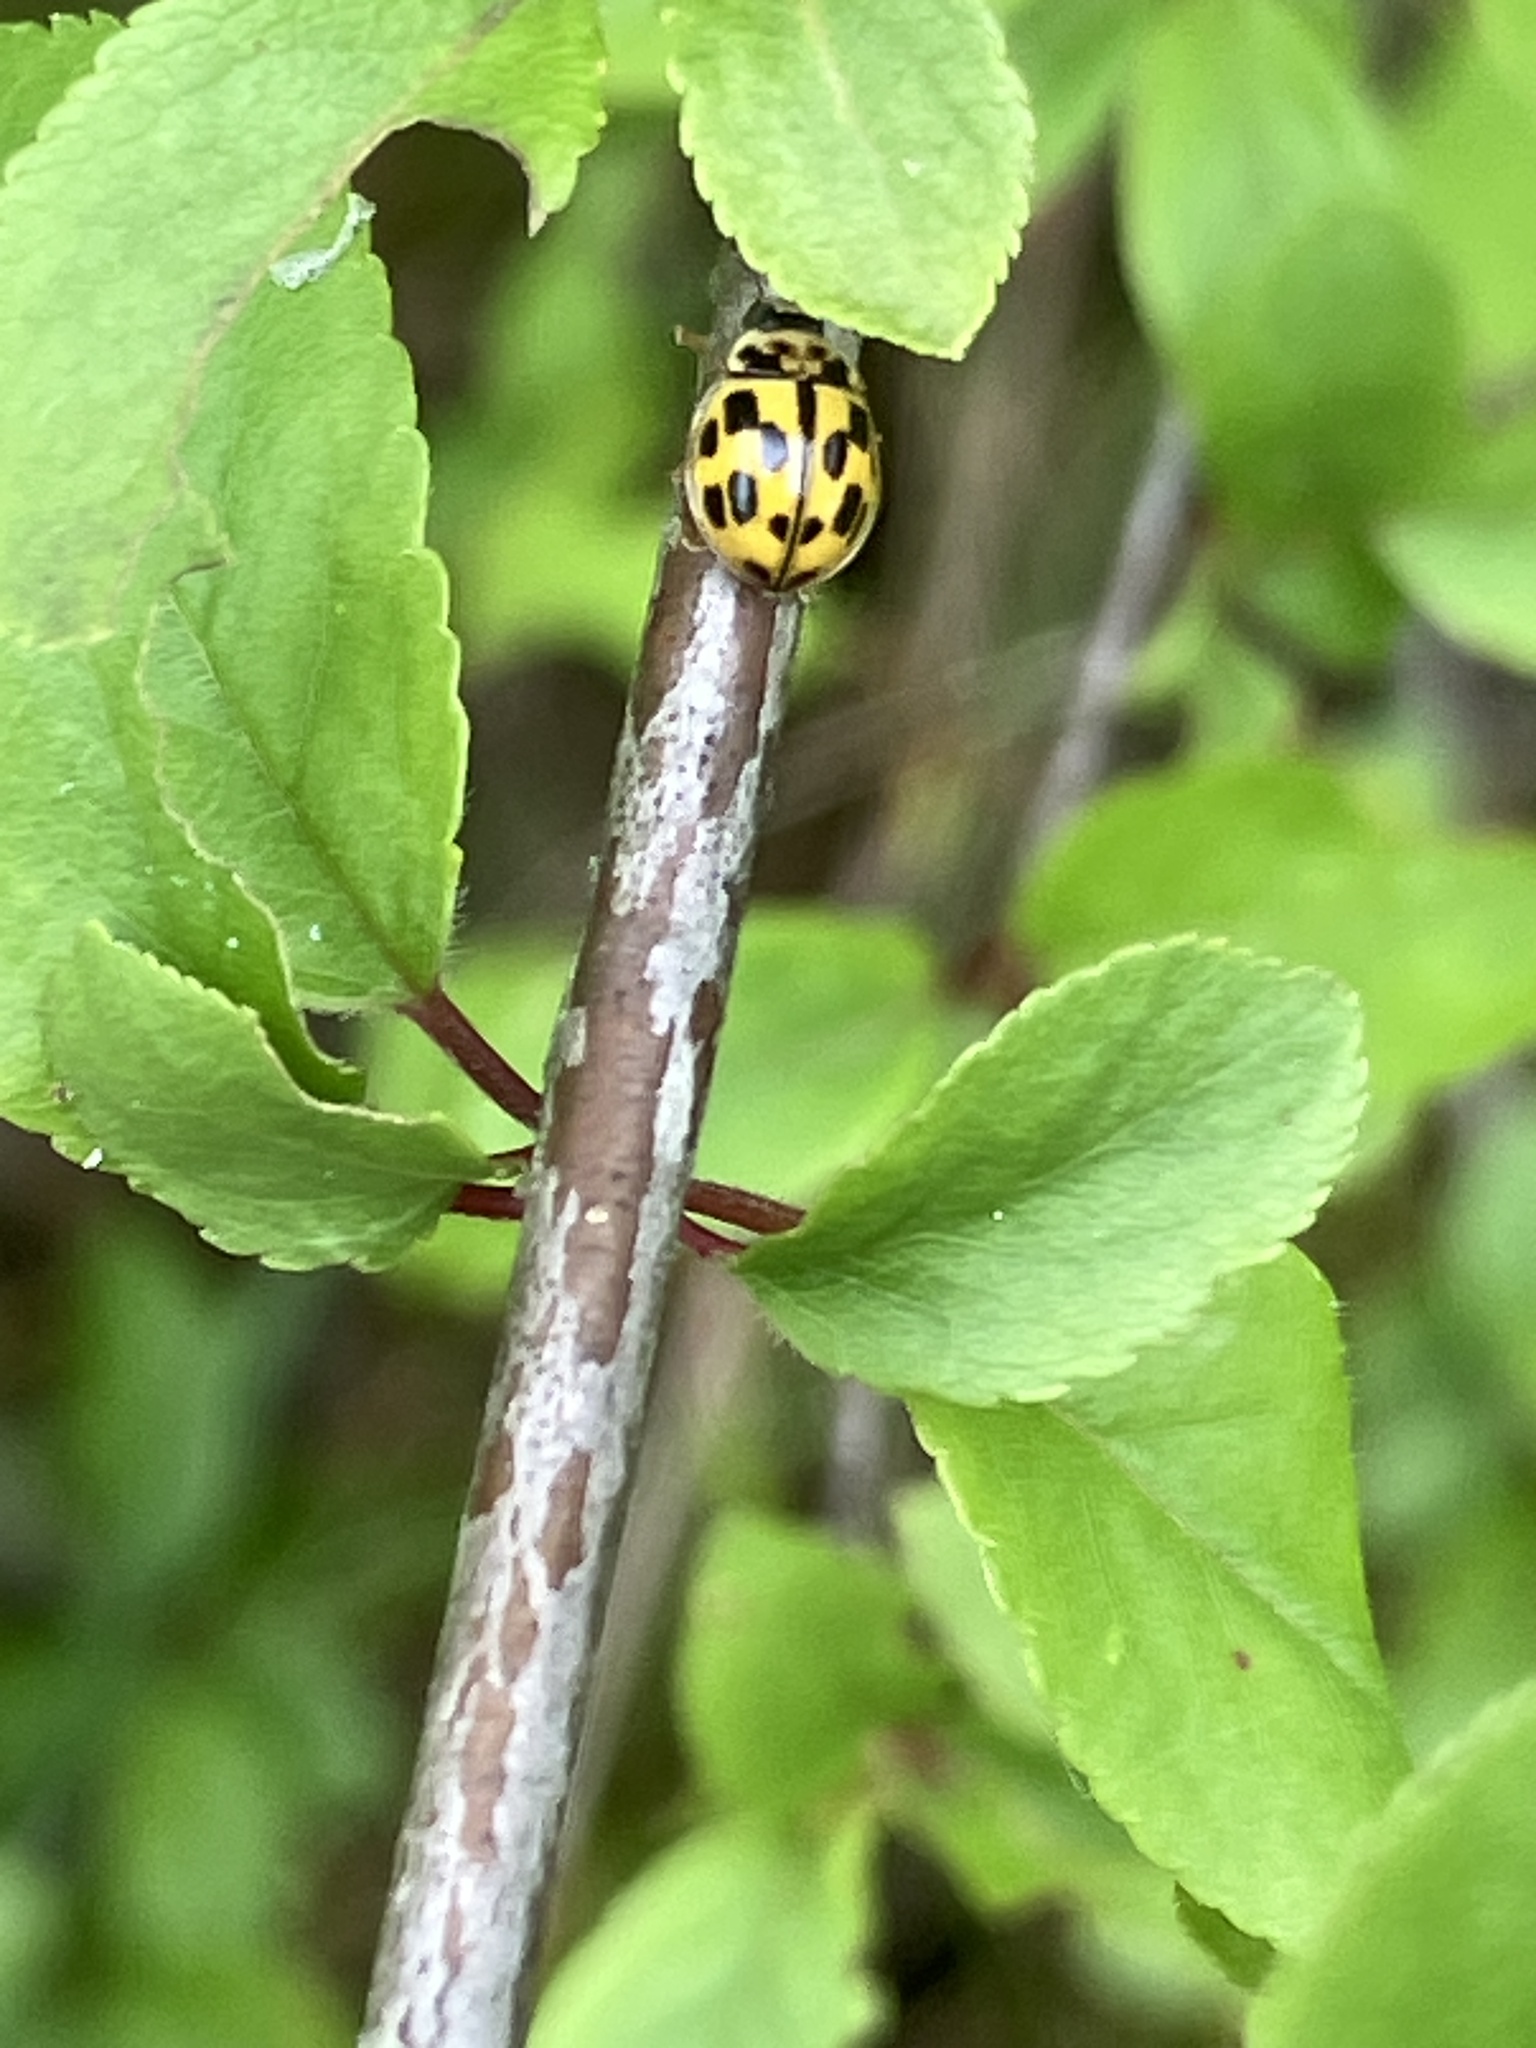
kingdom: Animalia
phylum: Arthropoda
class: Insecta
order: Coleoptera
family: Coccinellidae
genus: Propylaea
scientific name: Propylaea quatuordecimpunctata
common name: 14-spotted ladybird beetle
